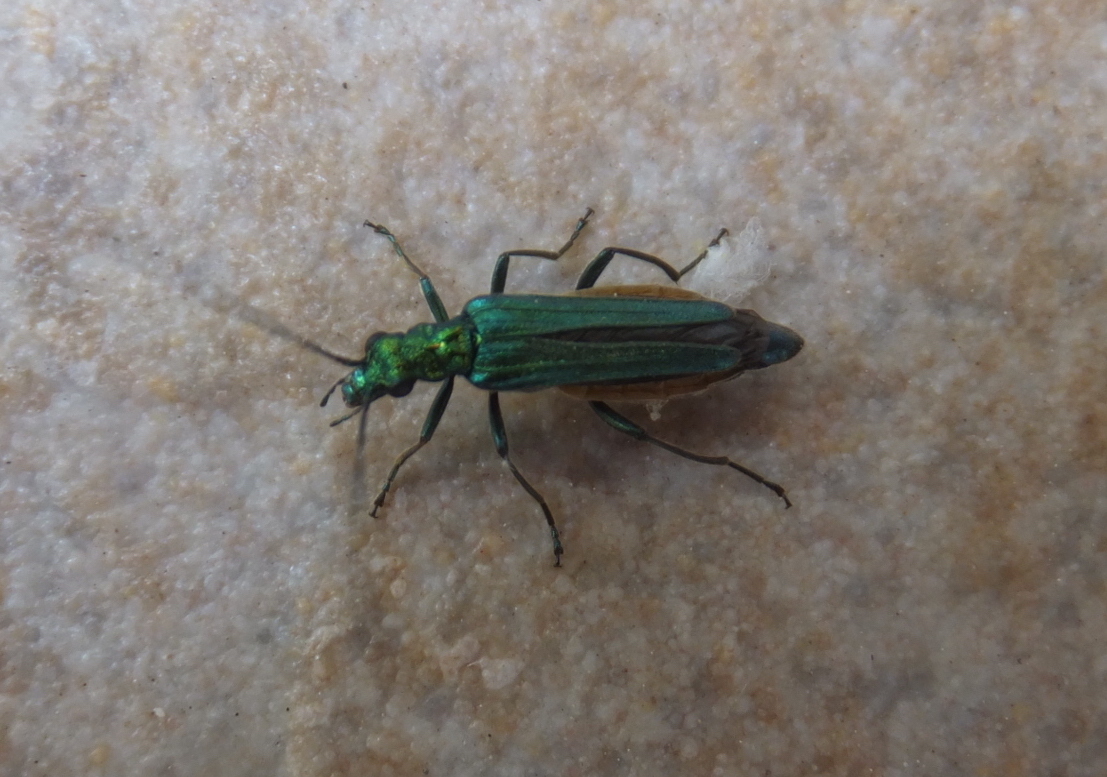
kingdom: Animalia
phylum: Arthropoda
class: Insecta
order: Coleoptera
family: Oedemeridae
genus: Oedemera
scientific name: Oedemera nobilis
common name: Swollen-thighed beetle
